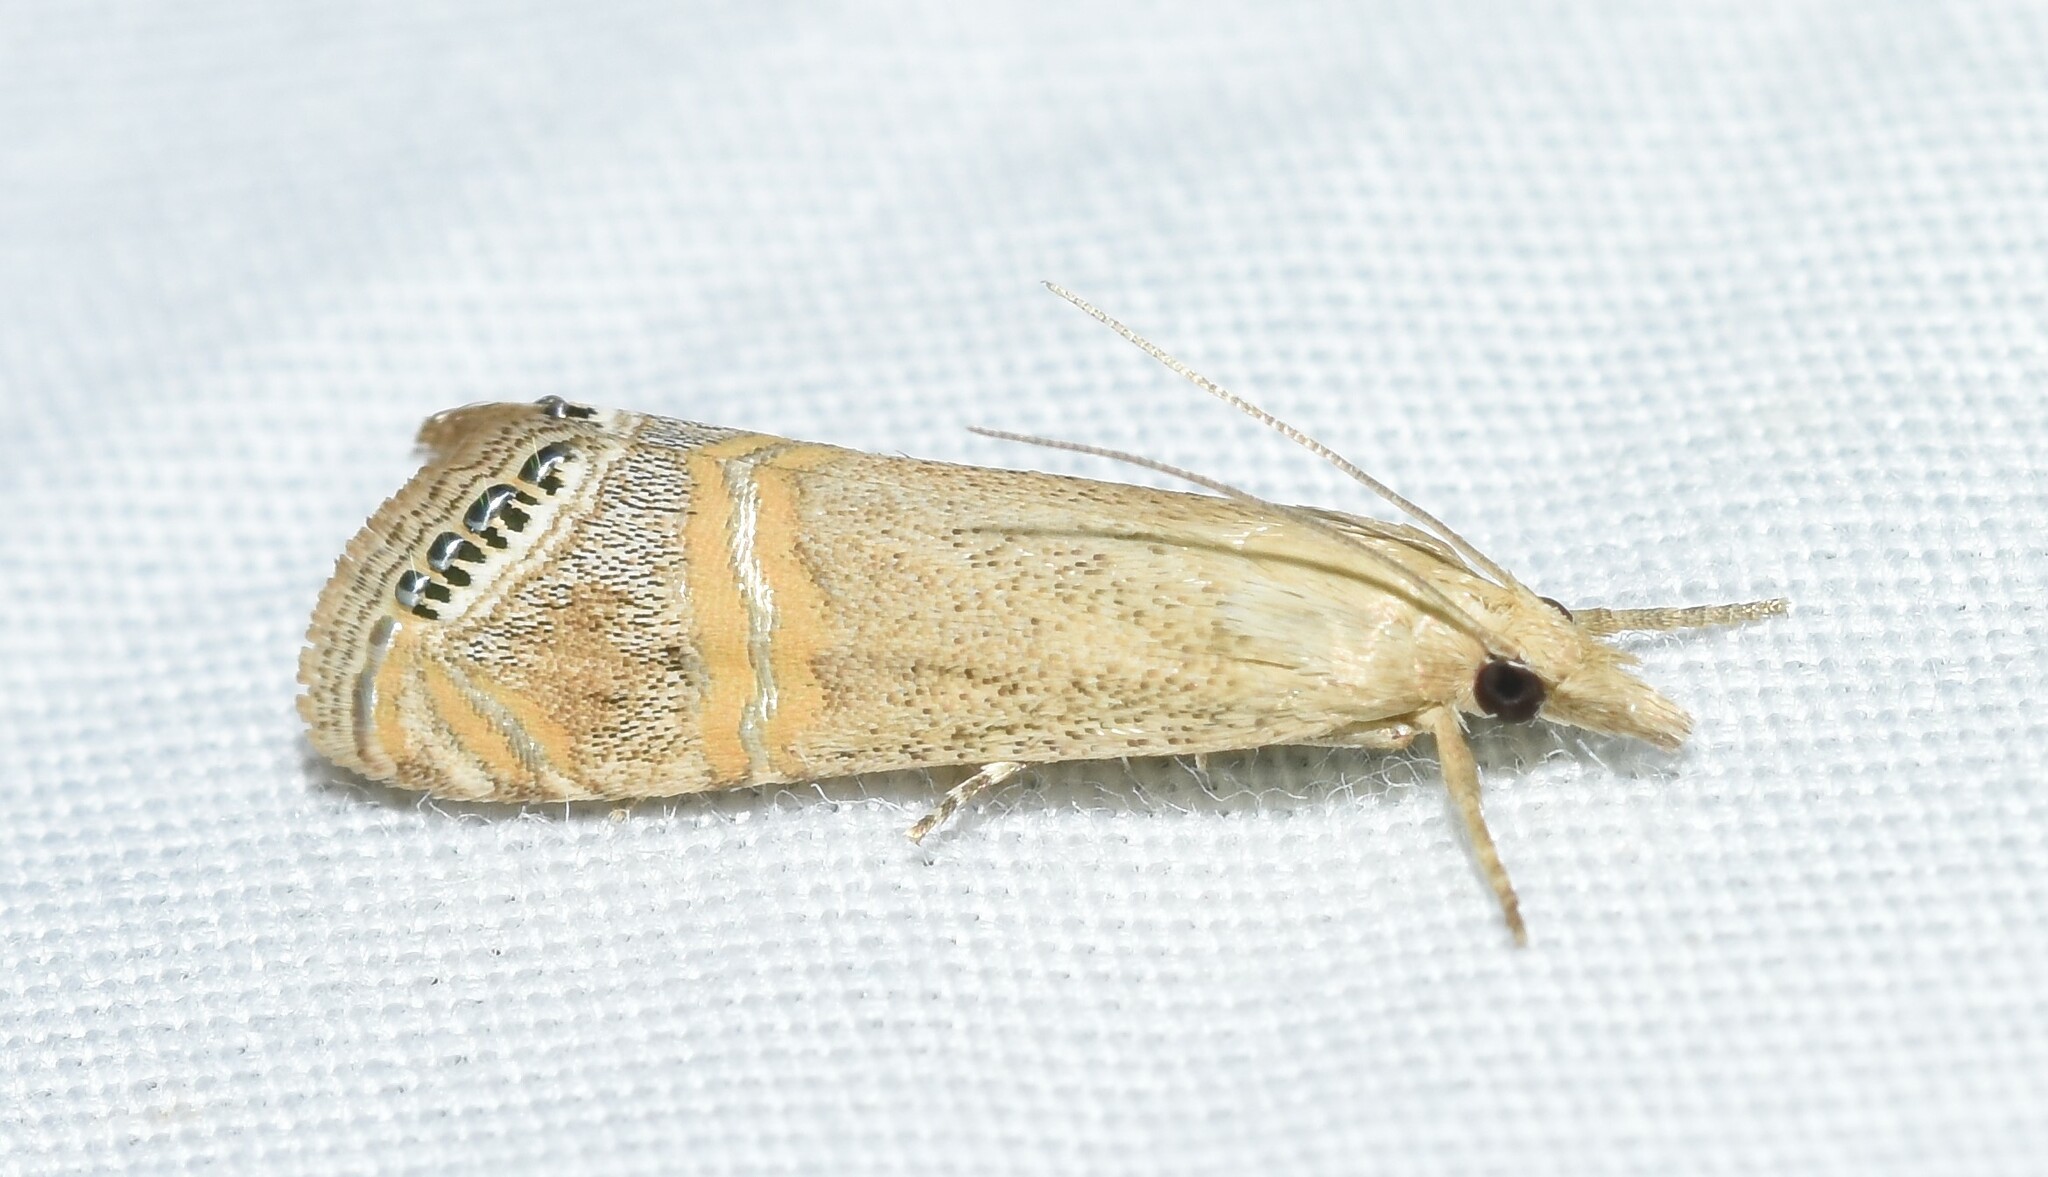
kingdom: Animalia
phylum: Arthropoda
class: Insecta
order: Lepidoptera
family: Crambidae
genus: Euchromius
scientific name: Euchromius ocellea
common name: Necklace veneer moth
